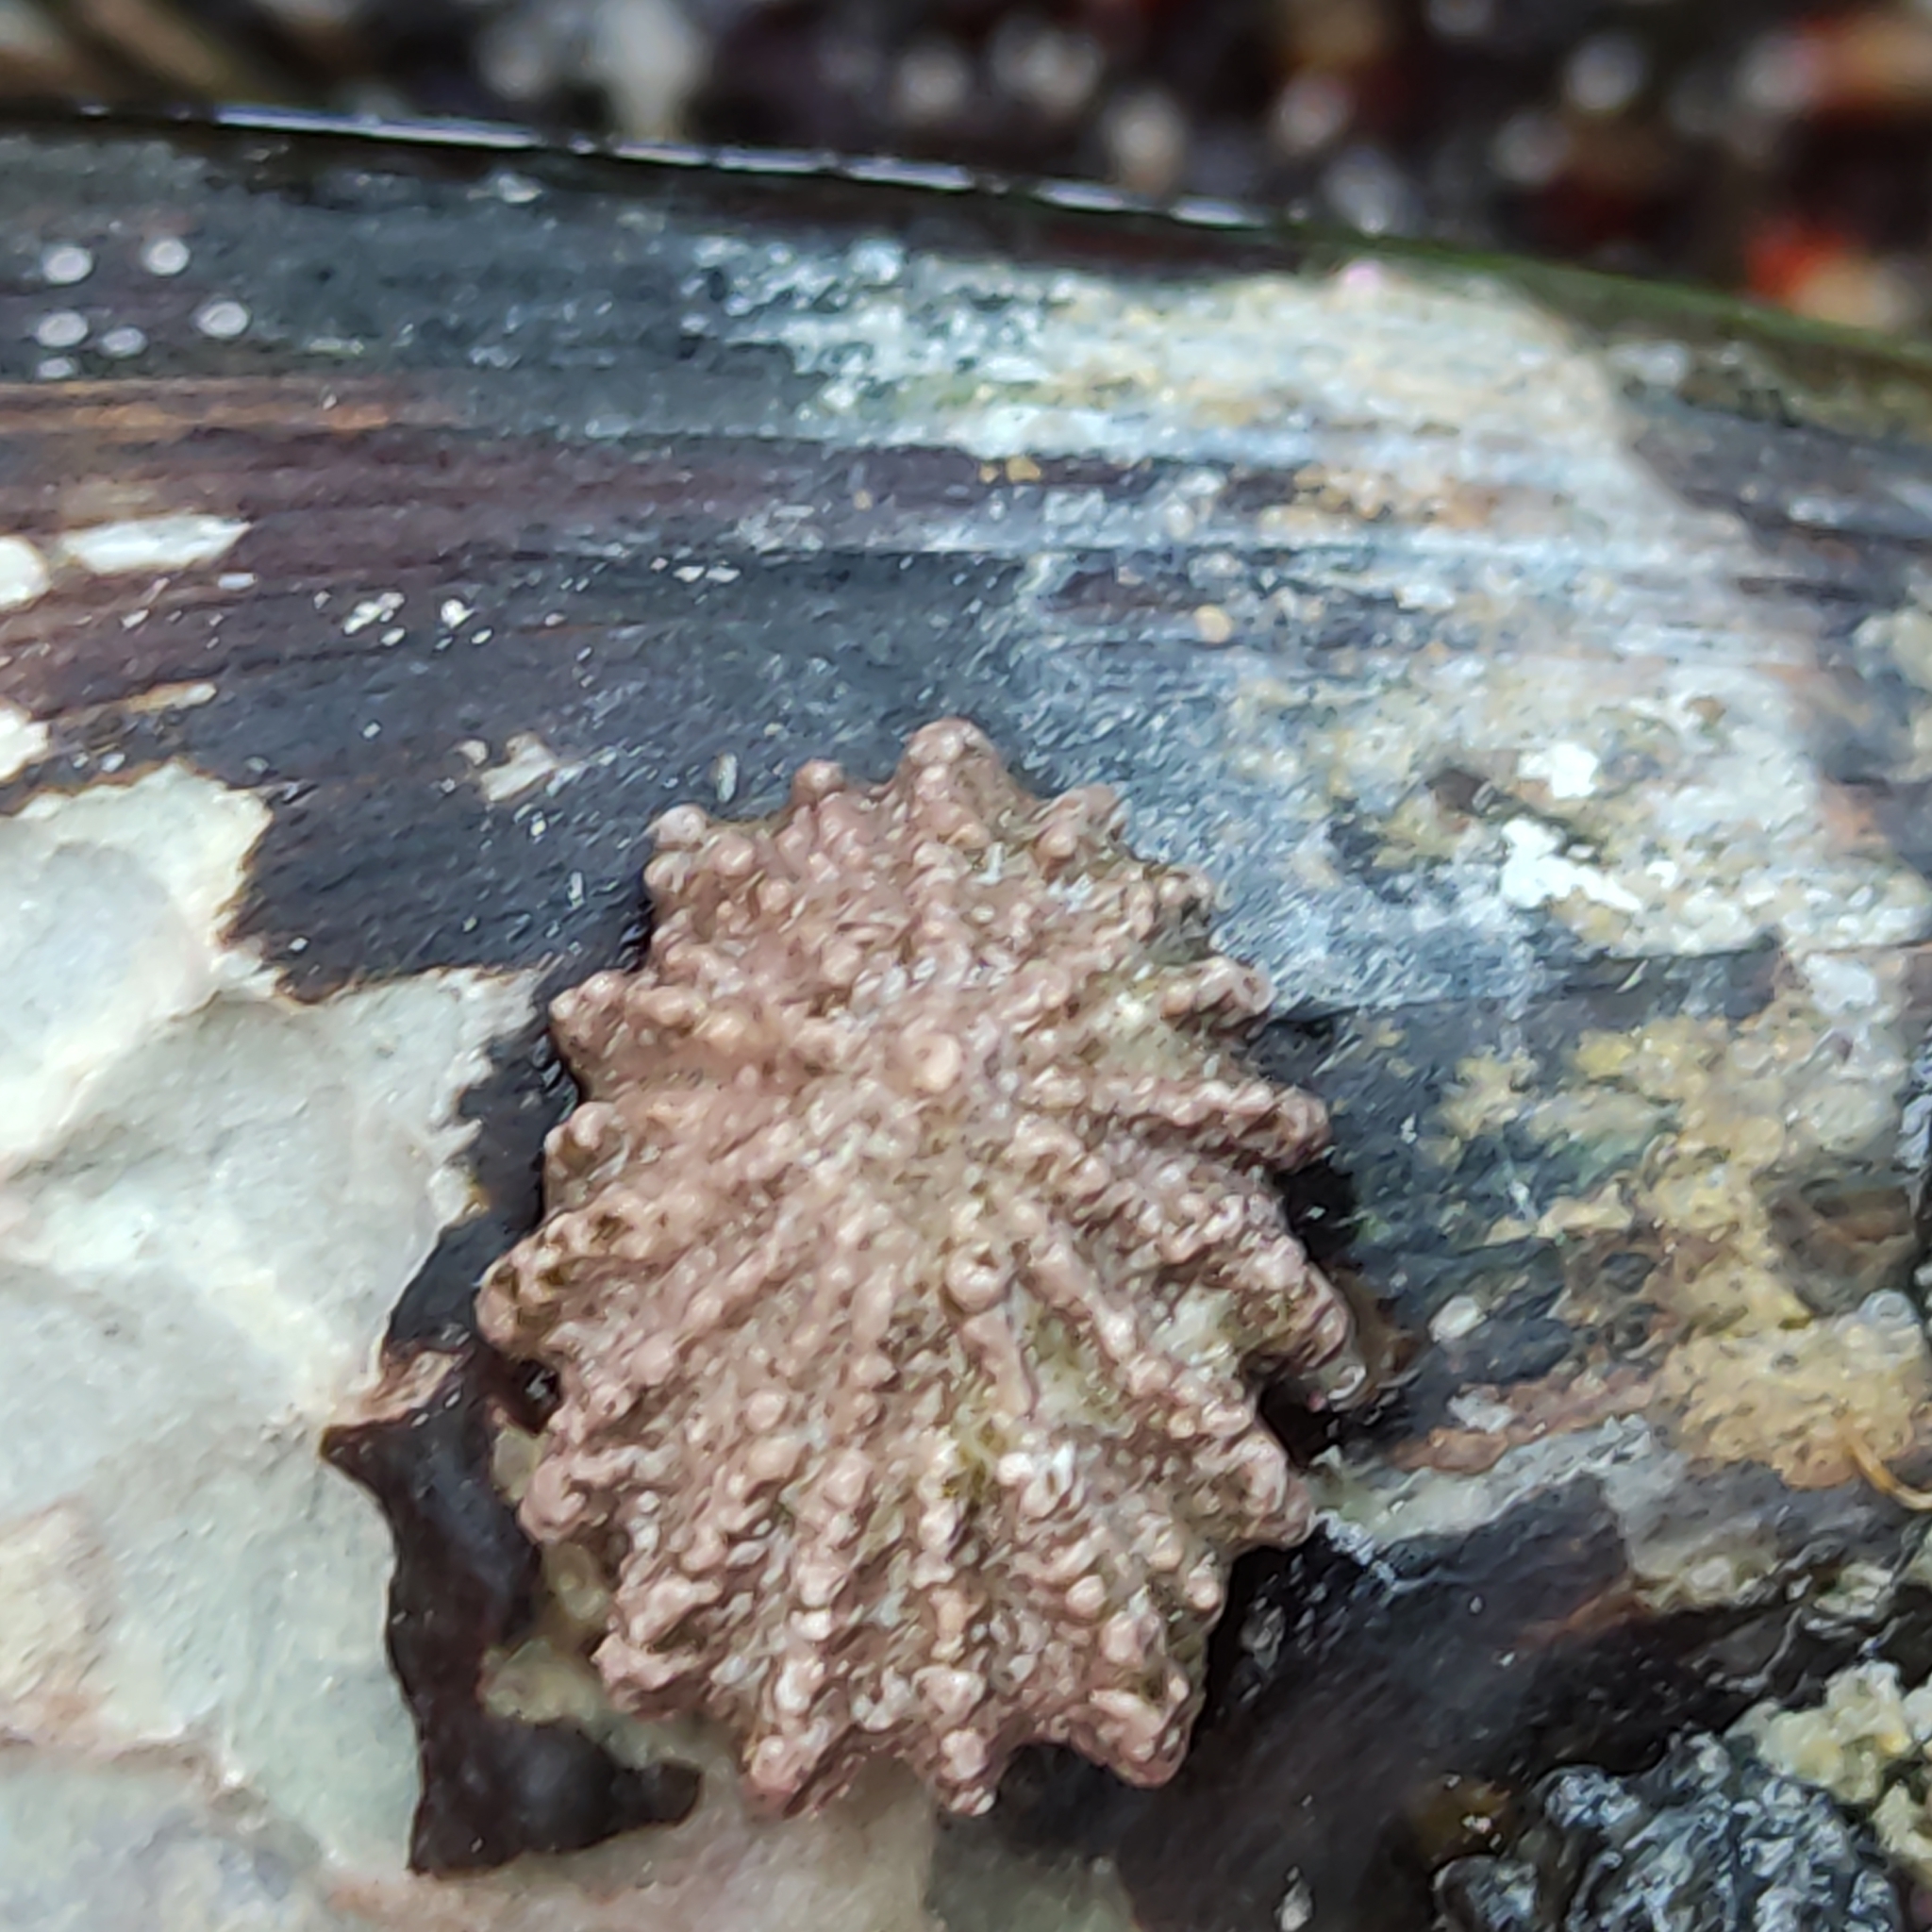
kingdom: Animalia
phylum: Mollusca
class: Gastropoda
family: Lottiidae
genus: Patelloida
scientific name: Patelloida corticata
